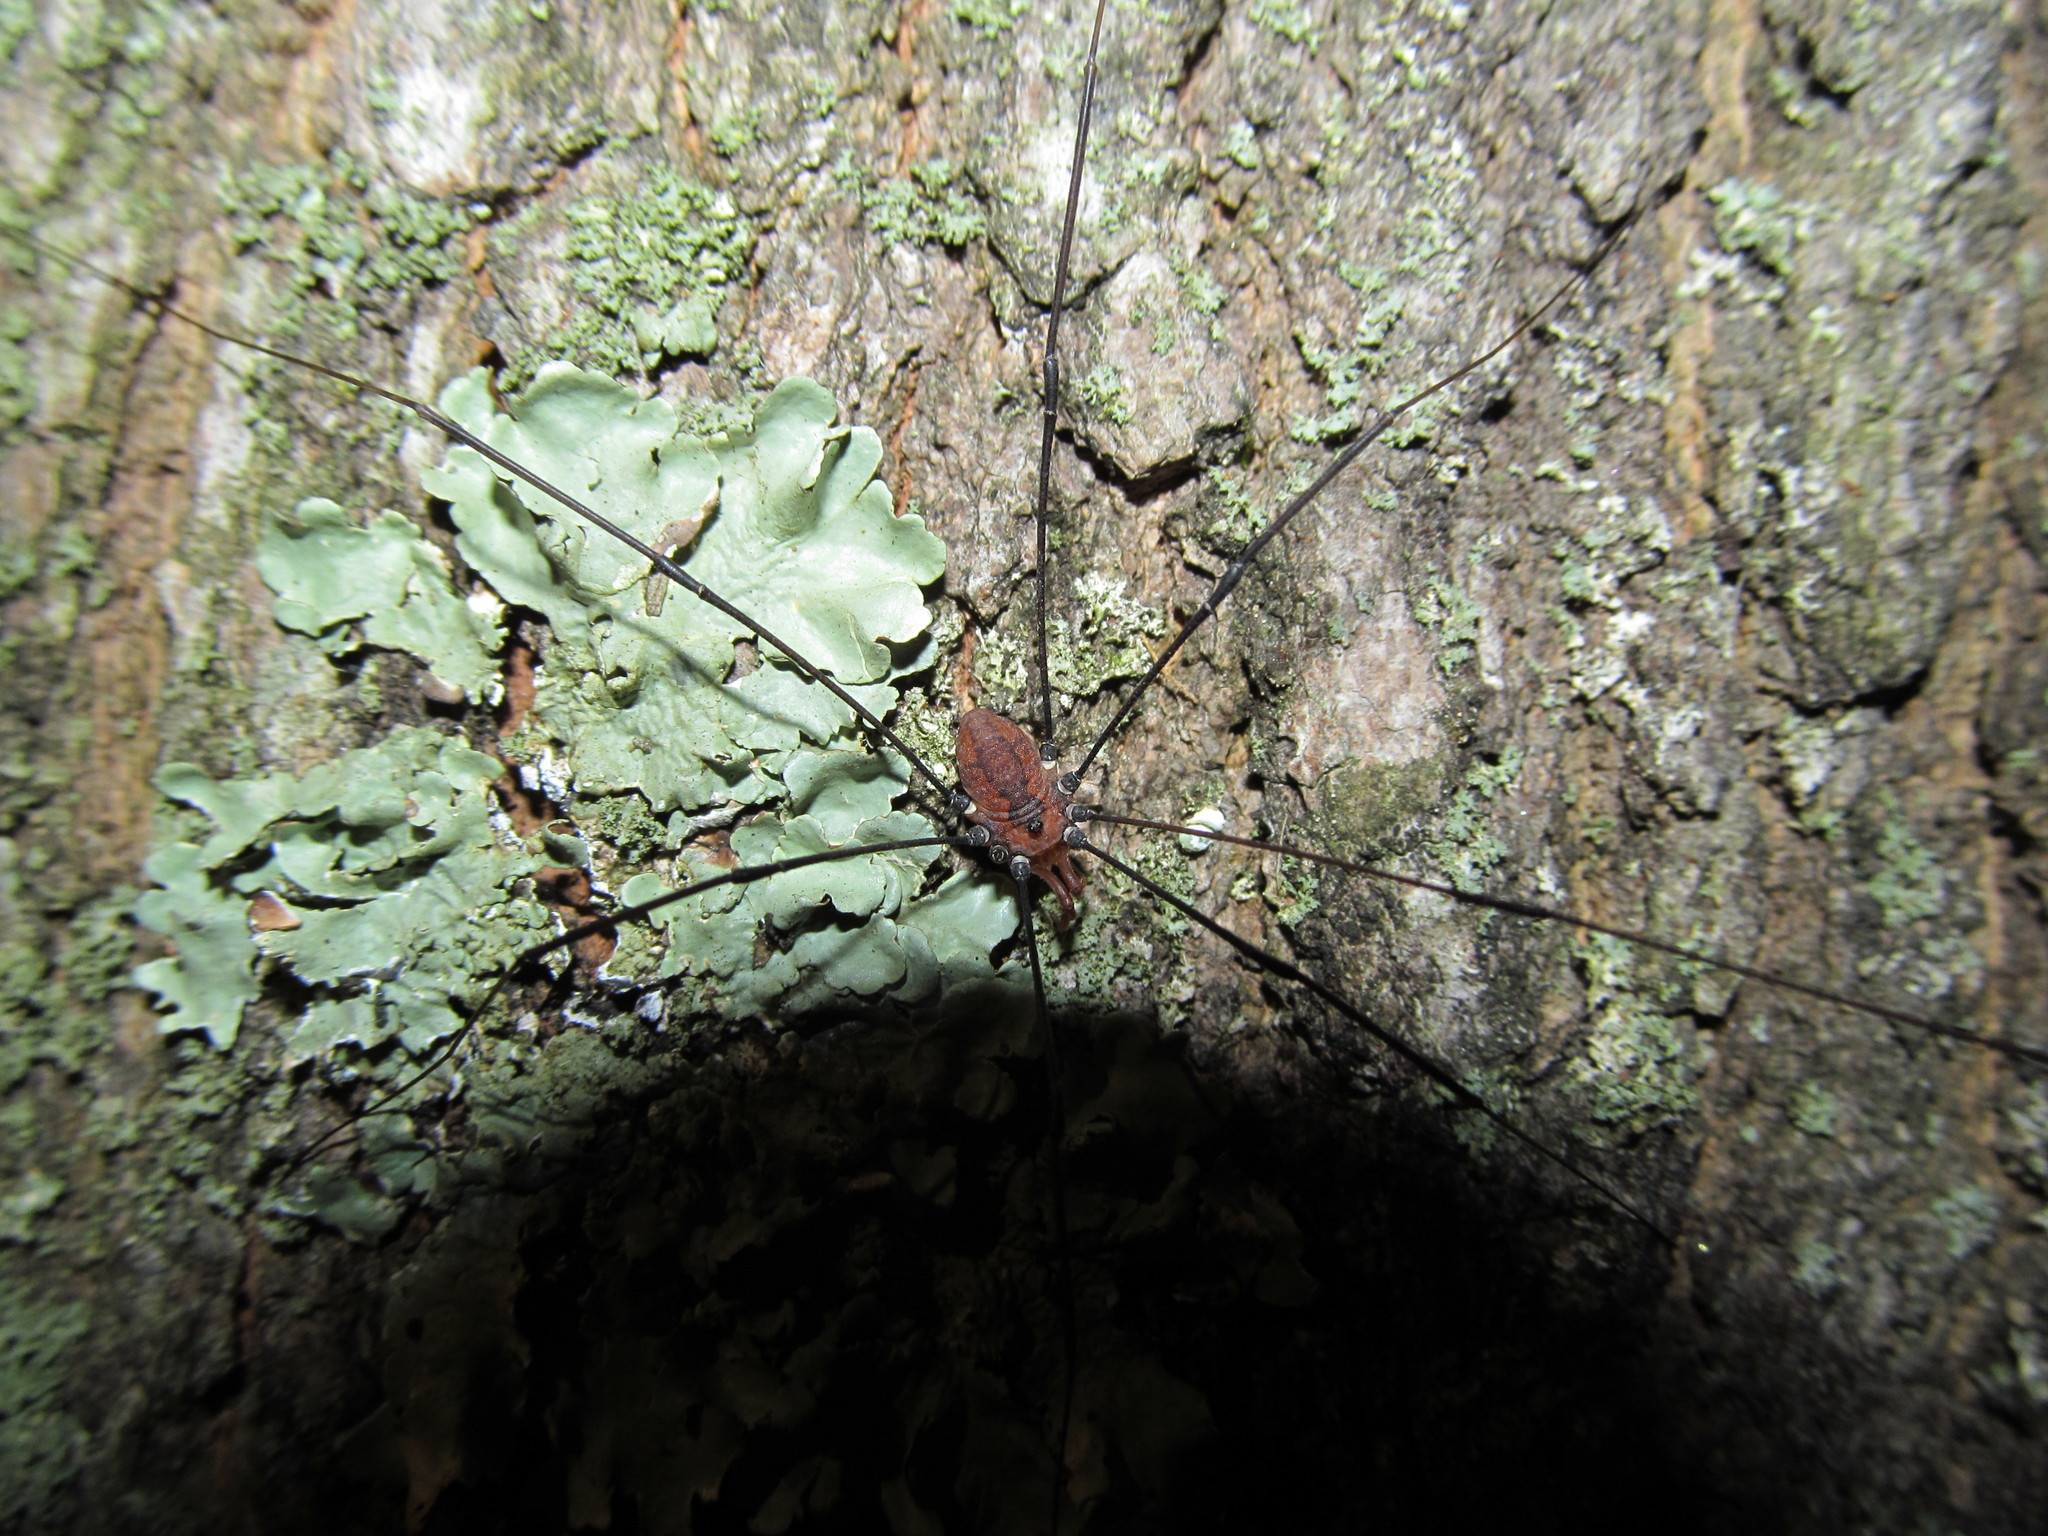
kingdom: Animalia
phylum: Arthropoda
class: Arachnida
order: Opiliones
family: Sclerosomatidae
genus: Leiobunum
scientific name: Leiobunum vittatum
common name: Eastern harvestman
